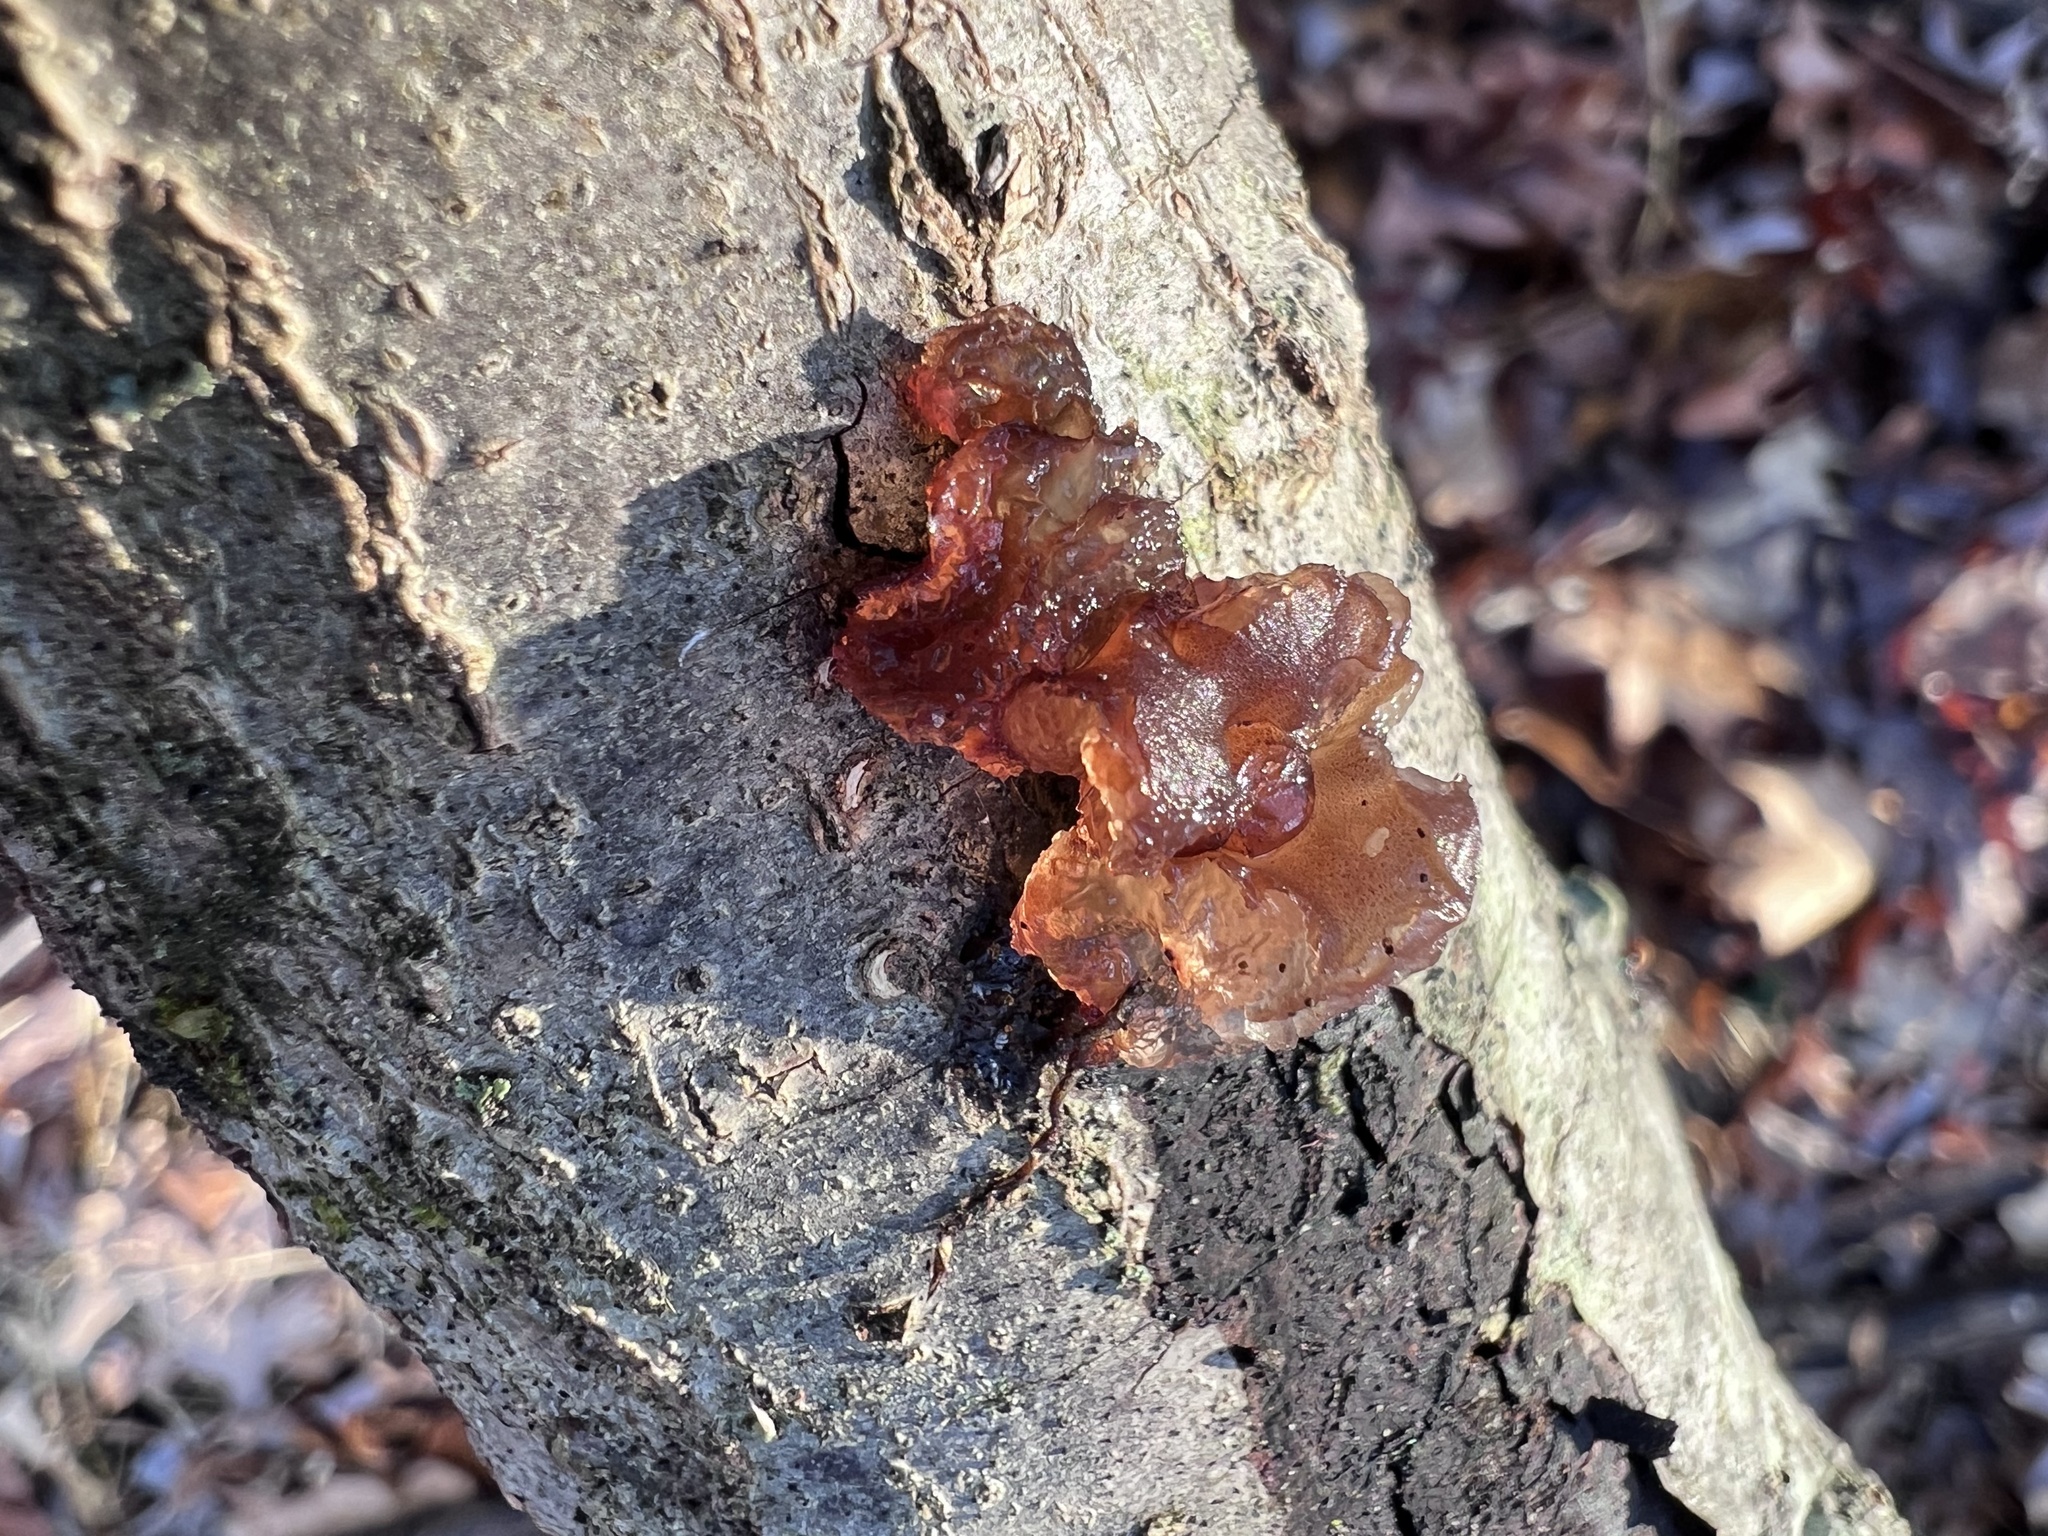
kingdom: Fungi
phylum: Basidiomycota
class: Agaricomycetes
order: Auriculariales
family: Auriculariaceae
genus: Exidia
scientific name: Exidia
